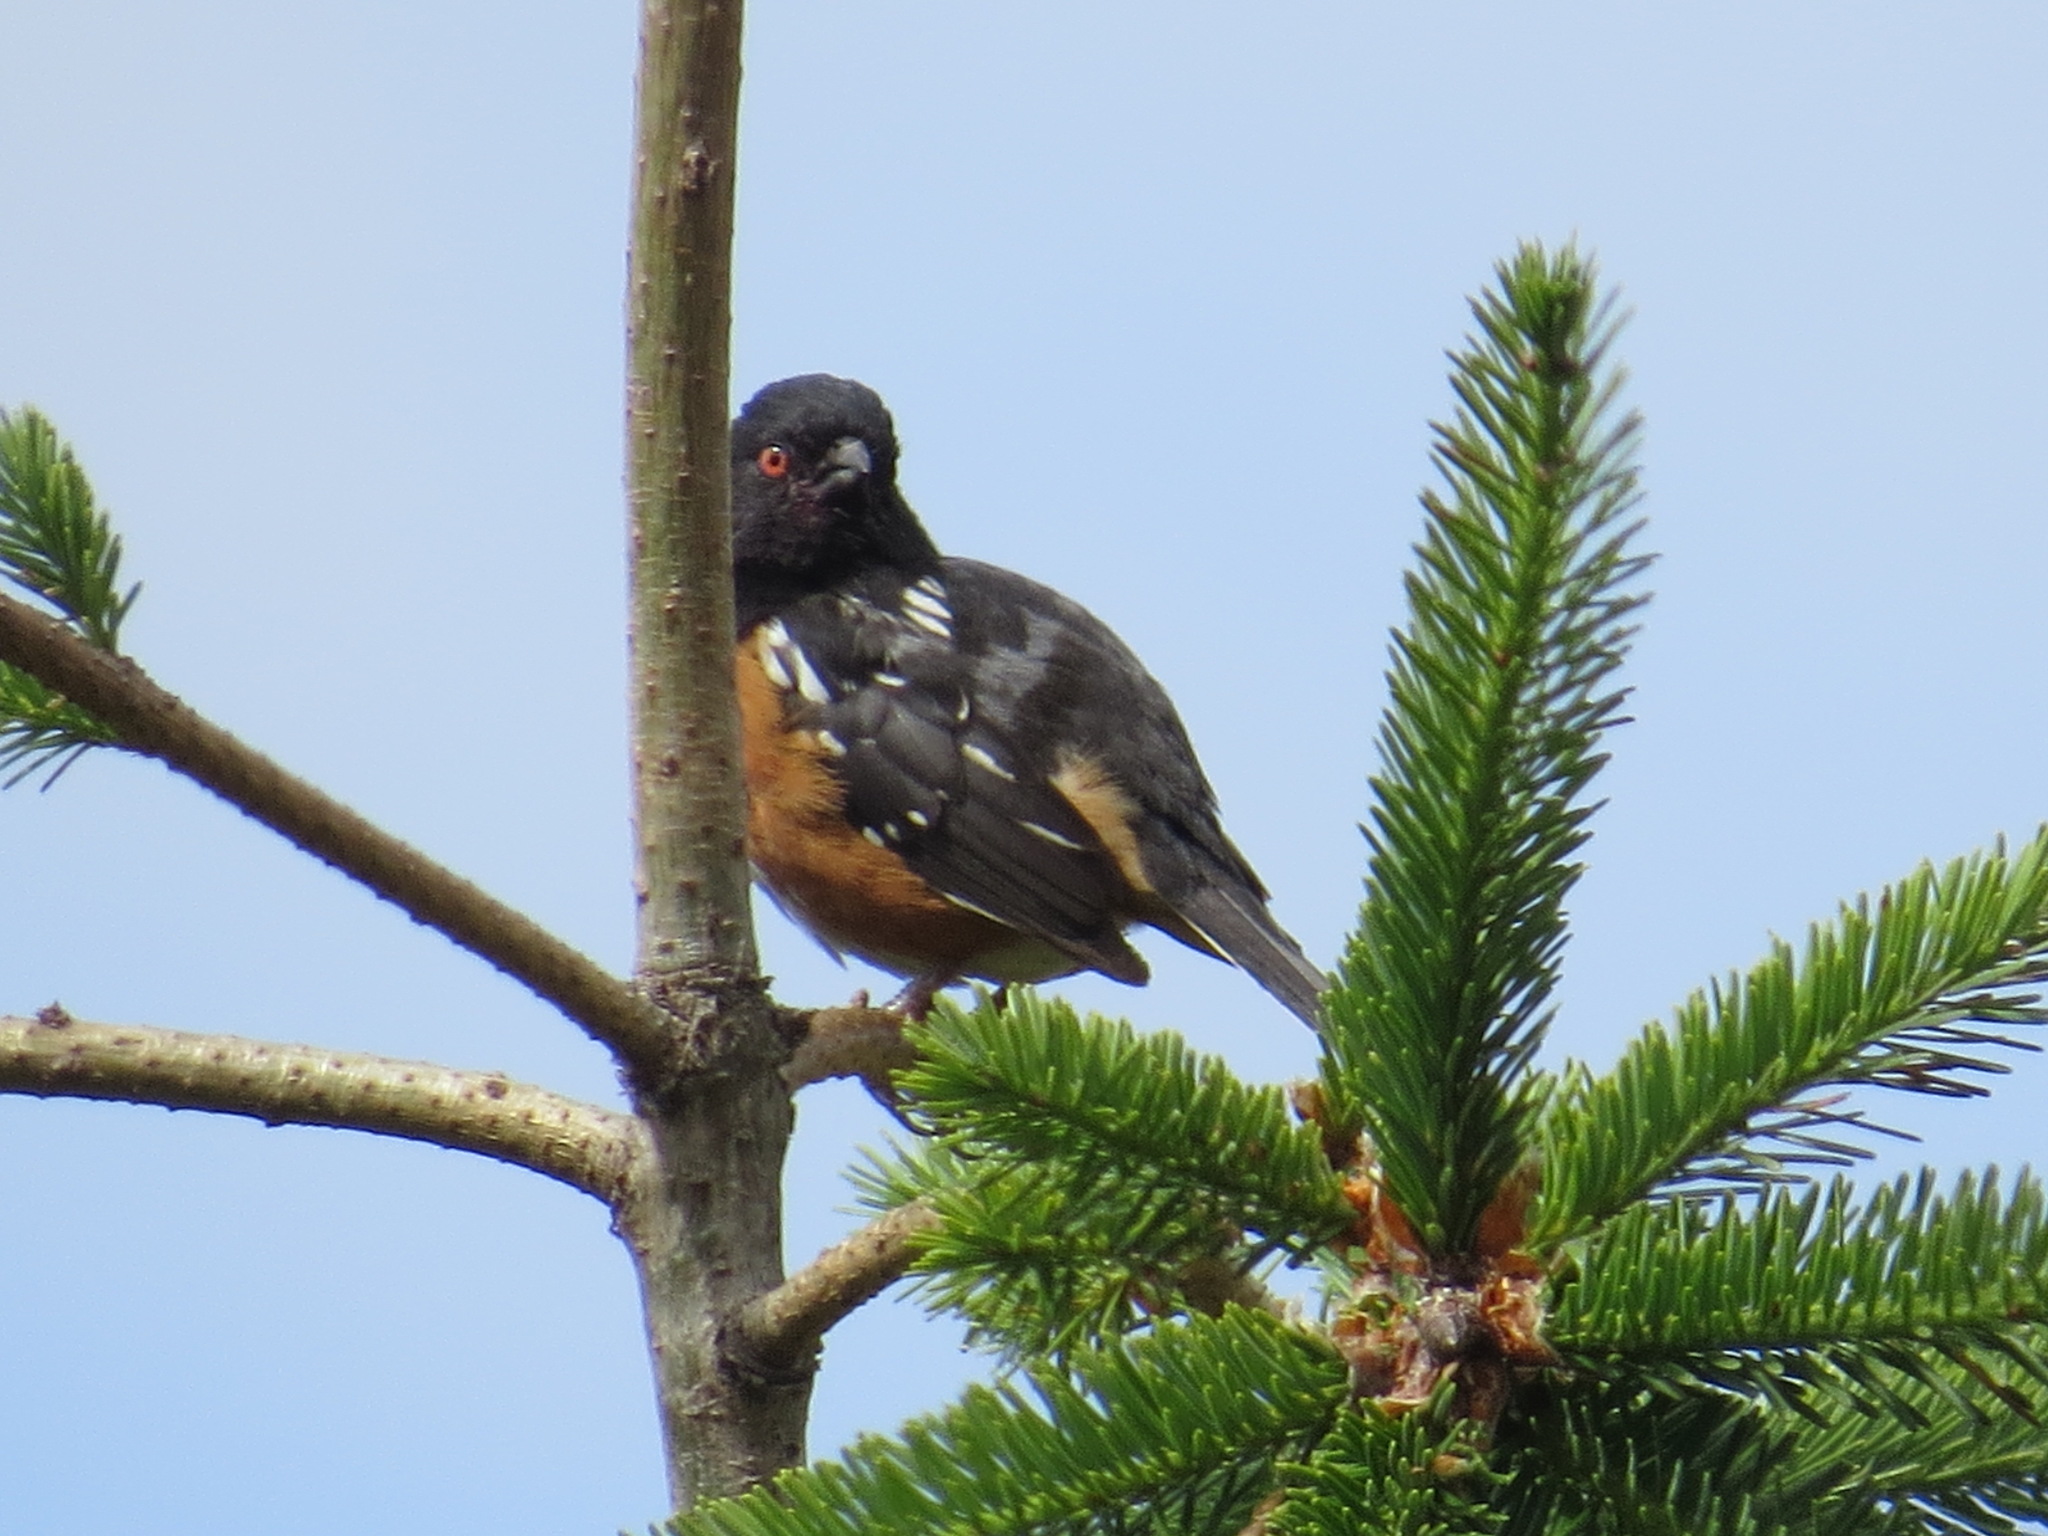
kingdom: Animalia
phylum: Chordata
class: Aves
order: Passeriformes
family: Passerellidae
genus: Pipilo
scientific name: Pipilo maculatus
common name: Spotted towhee
